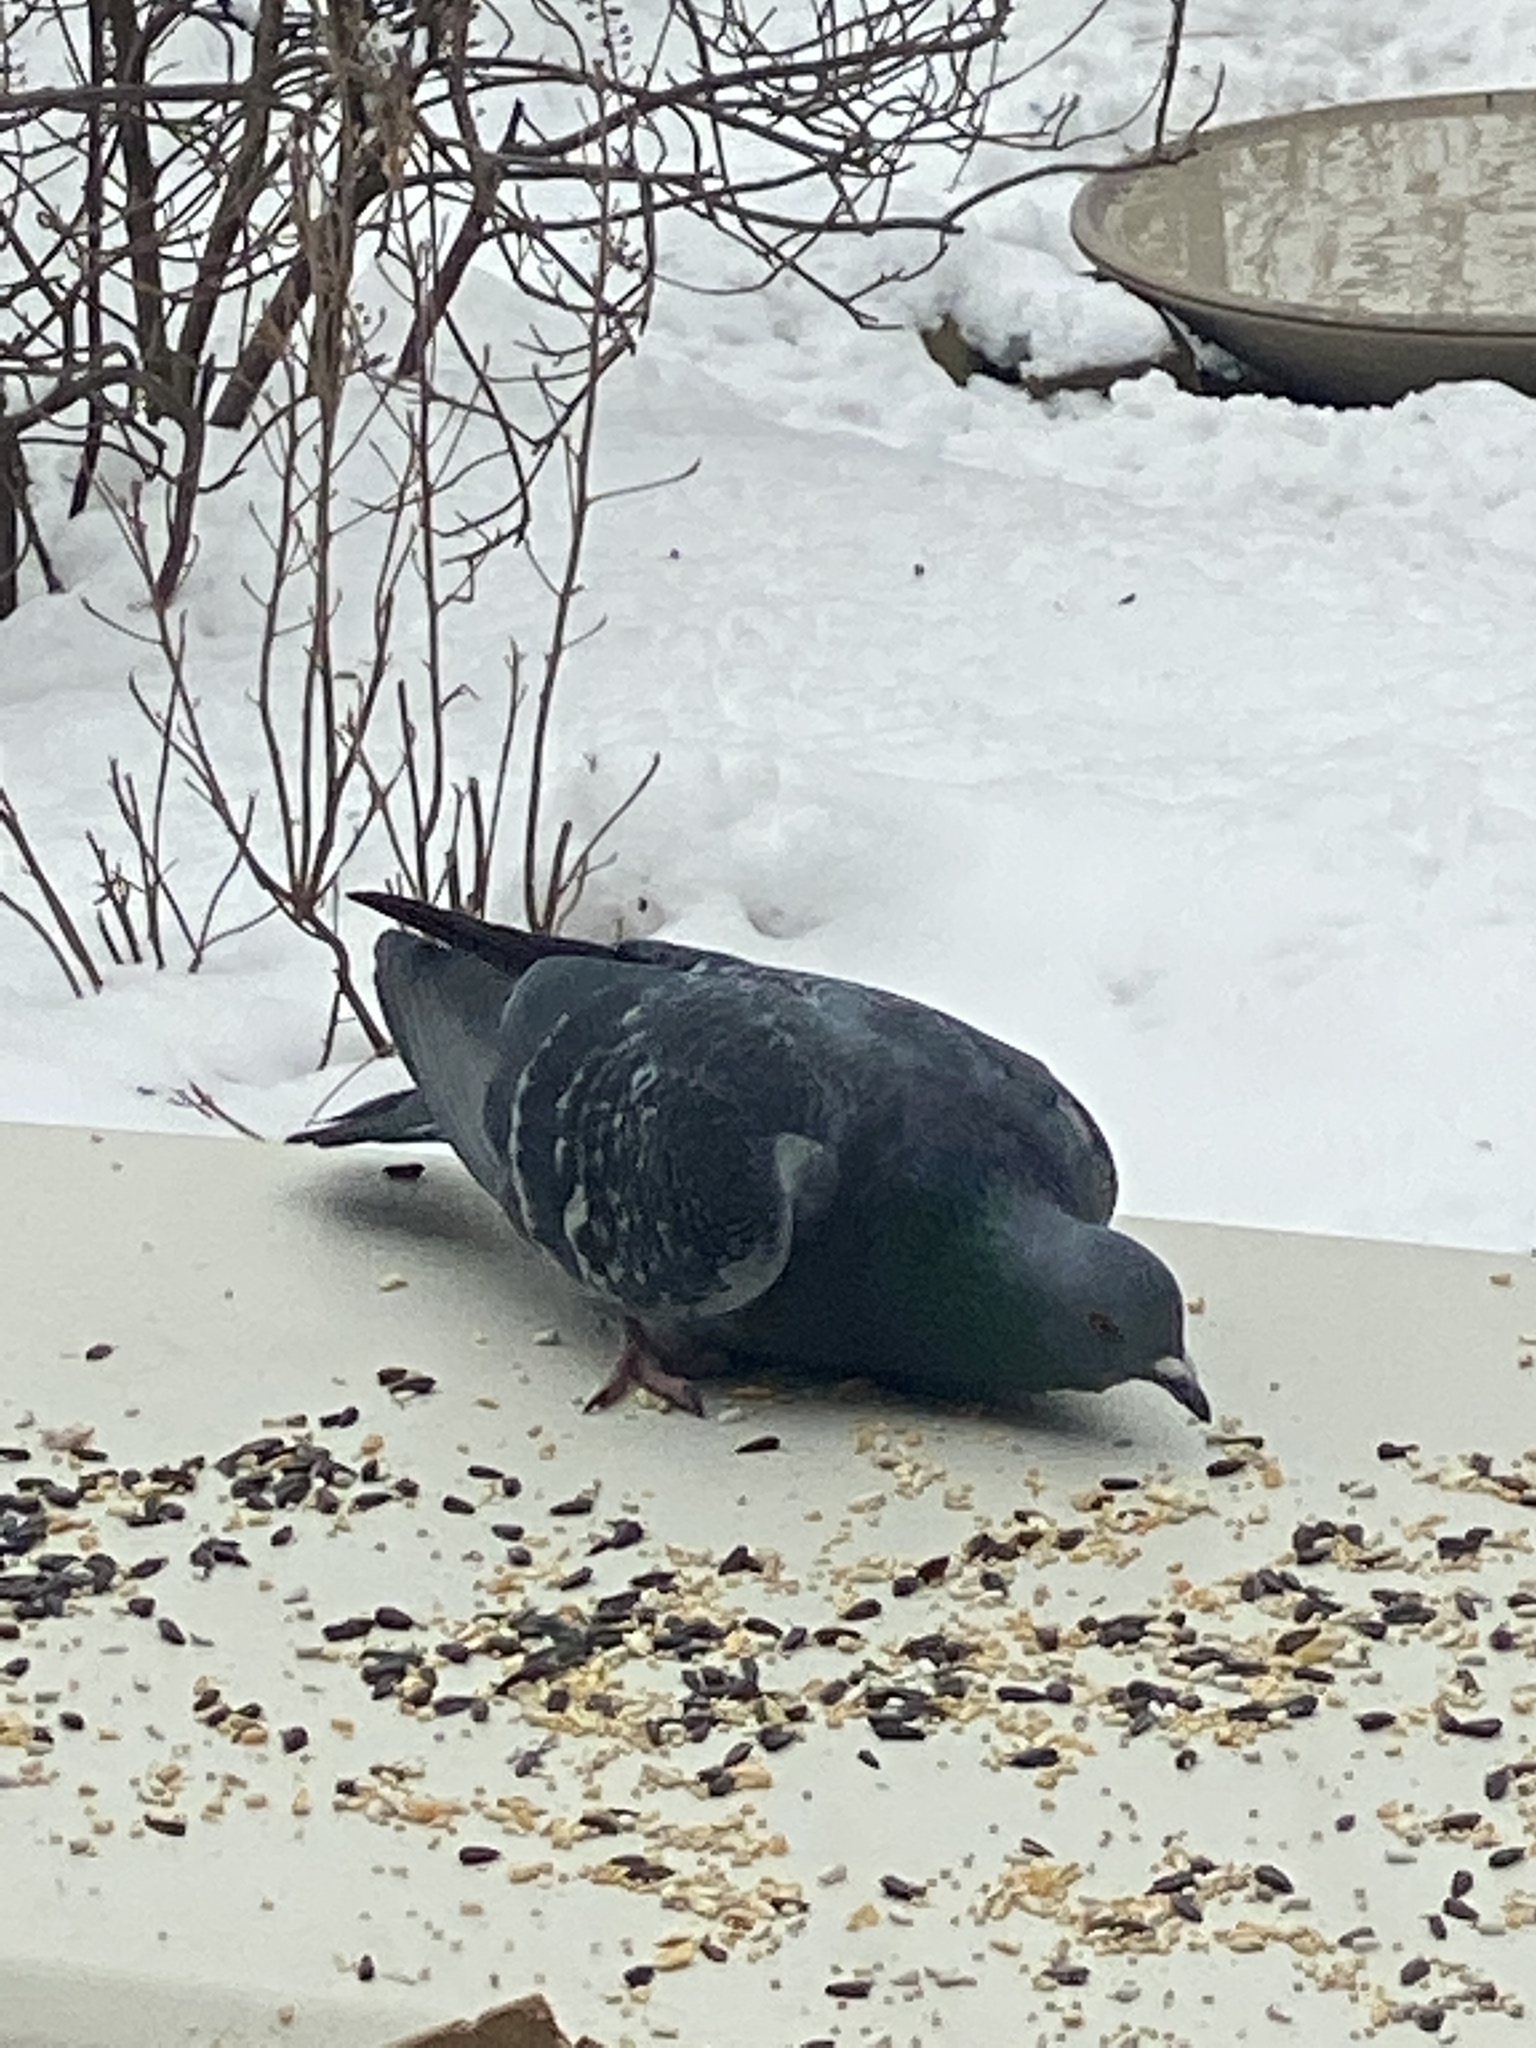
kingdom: Animalia
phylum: Chordata
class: Aves
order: Columbiformes
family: Columbidae
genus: Columba
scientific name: Columba livia
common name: Rock pigeon
